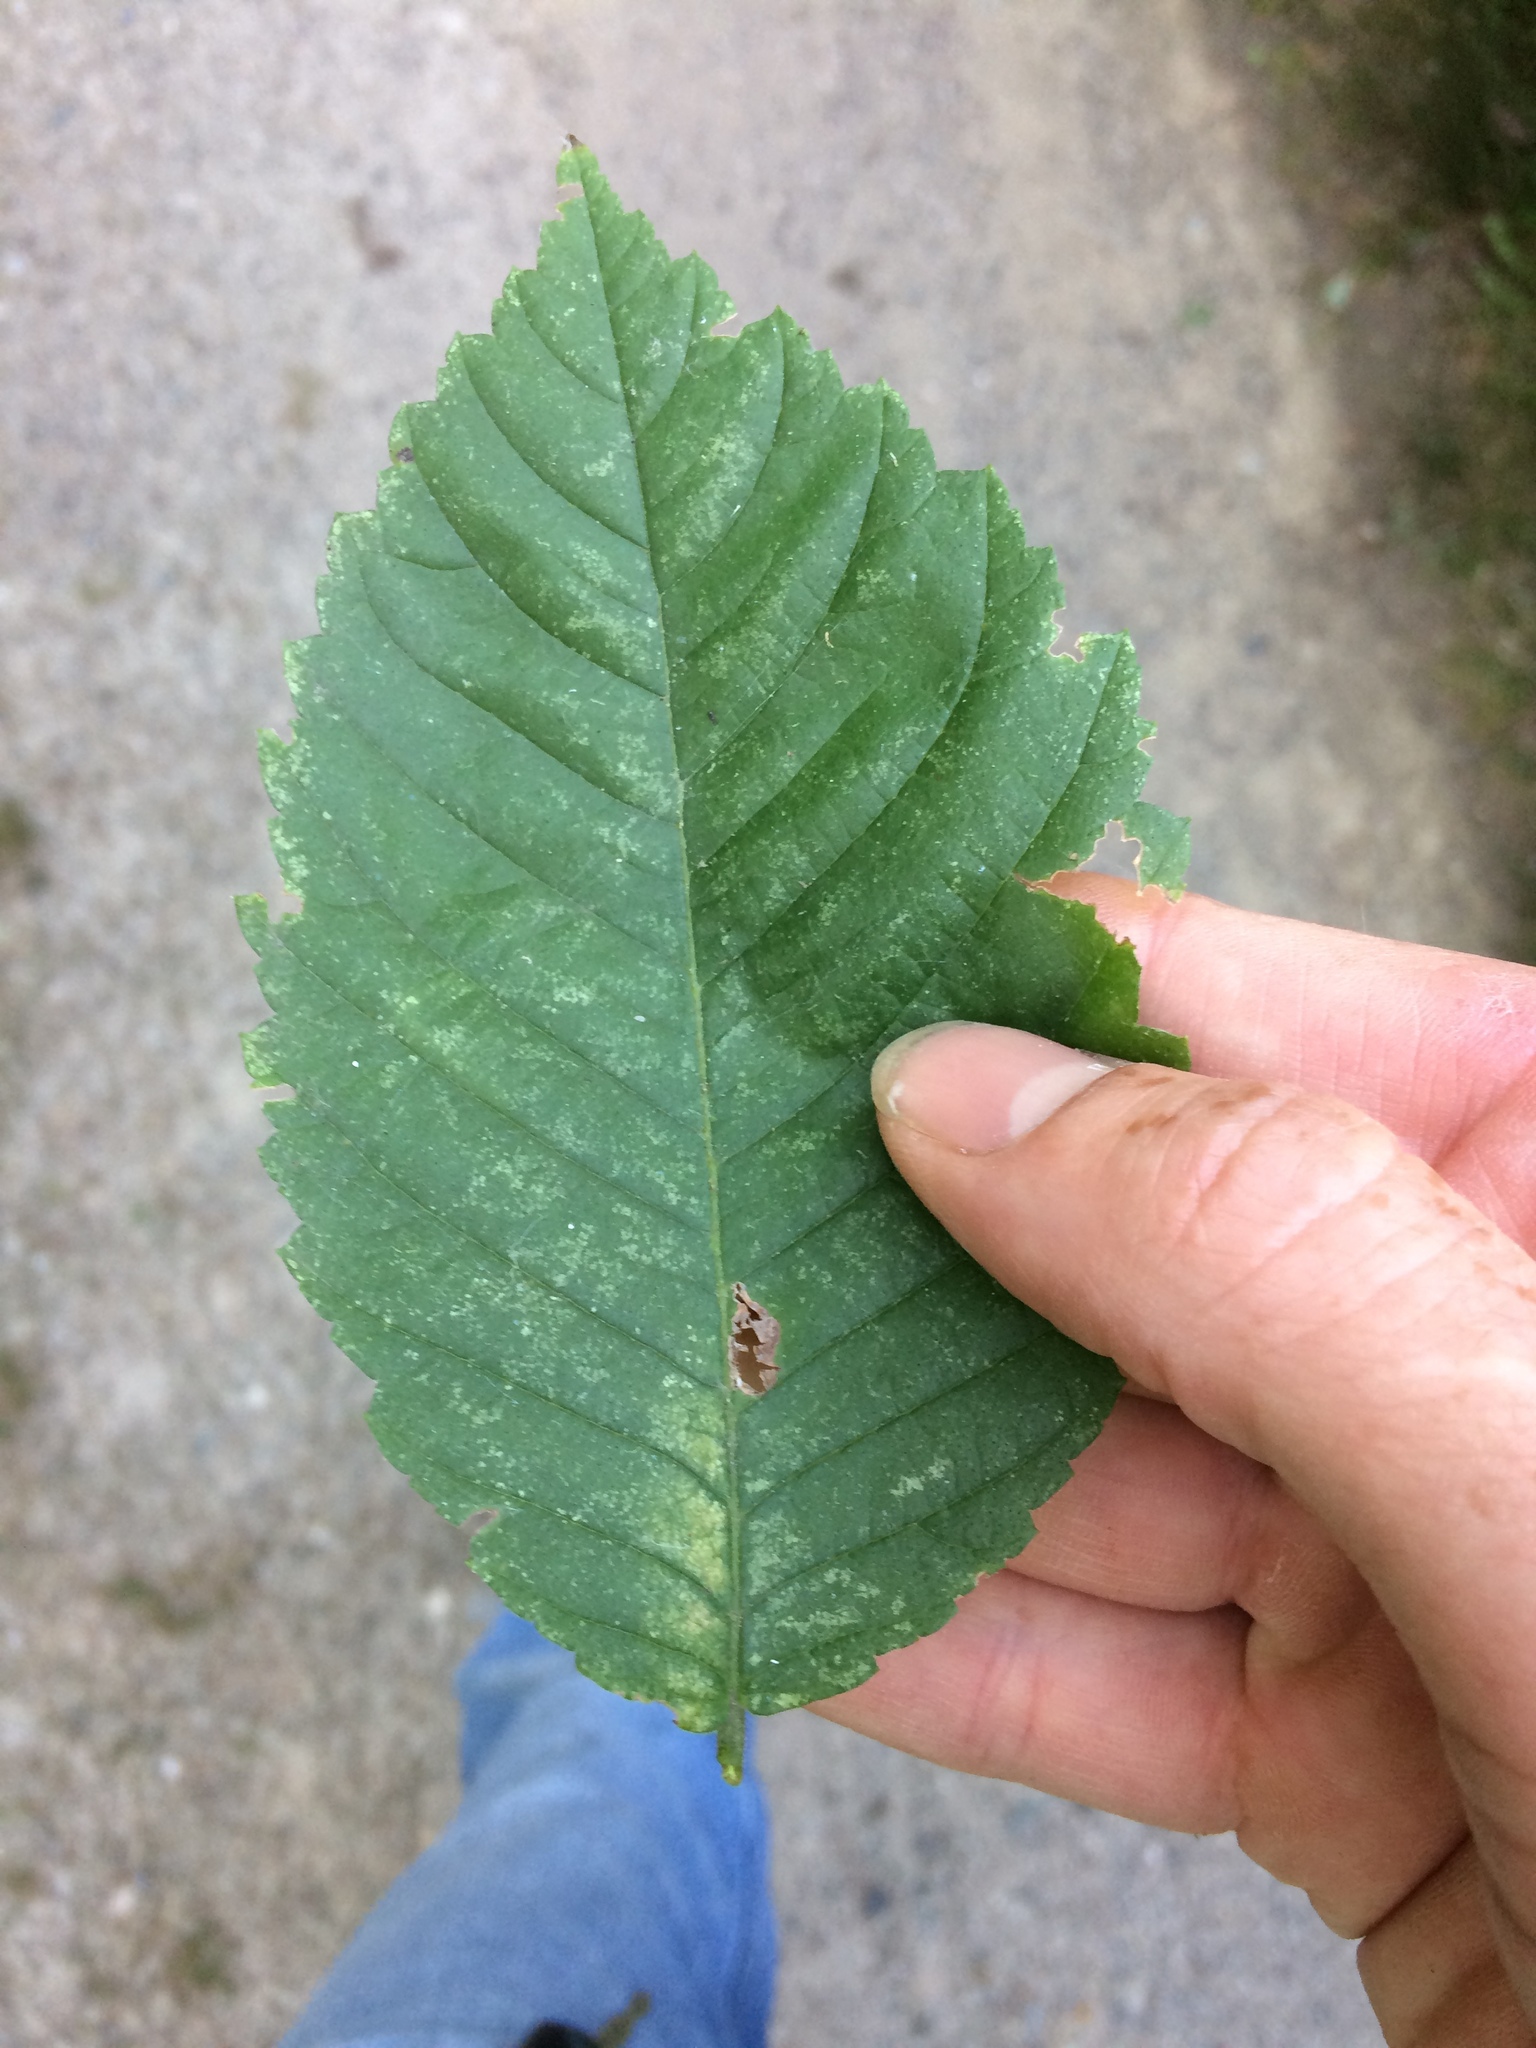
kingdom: Plantae
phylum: Tracheophyta
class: Magnoliopsida
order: Rosales
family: Ulmaceae
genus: Ulmus
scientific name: Ulmus americana
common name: American elm
